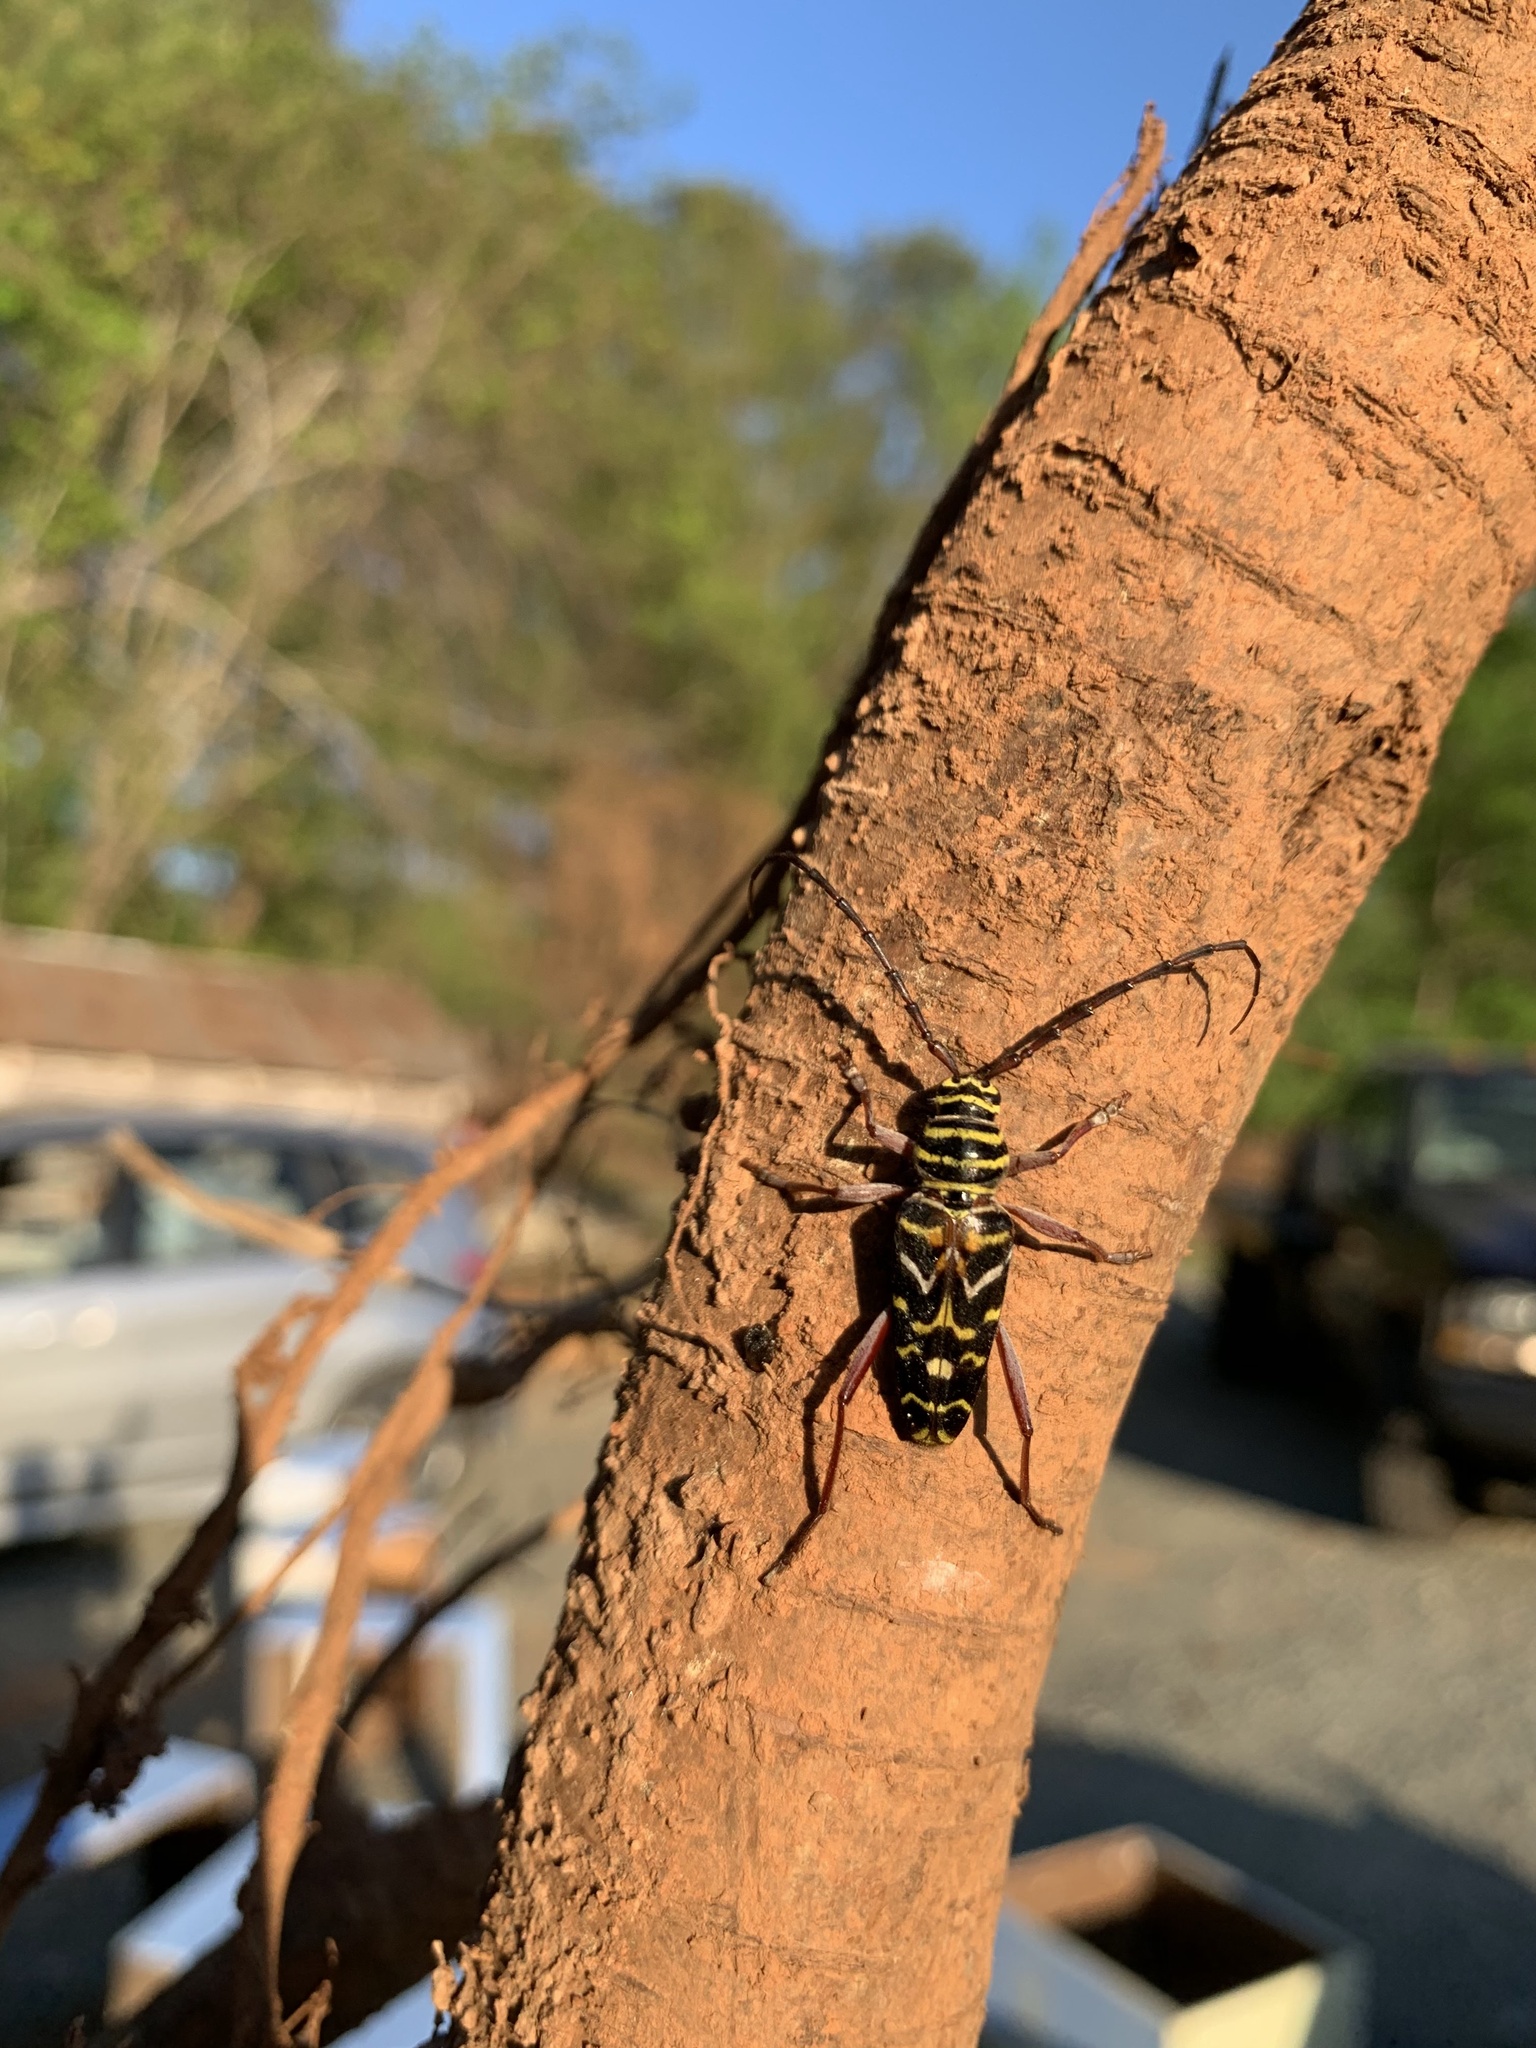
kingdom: Animalia
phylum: Arthropoda
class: Insecta
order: Coleoptera
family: Cerambycidae
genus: Megacyllene
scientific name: Megacyllene caryae
